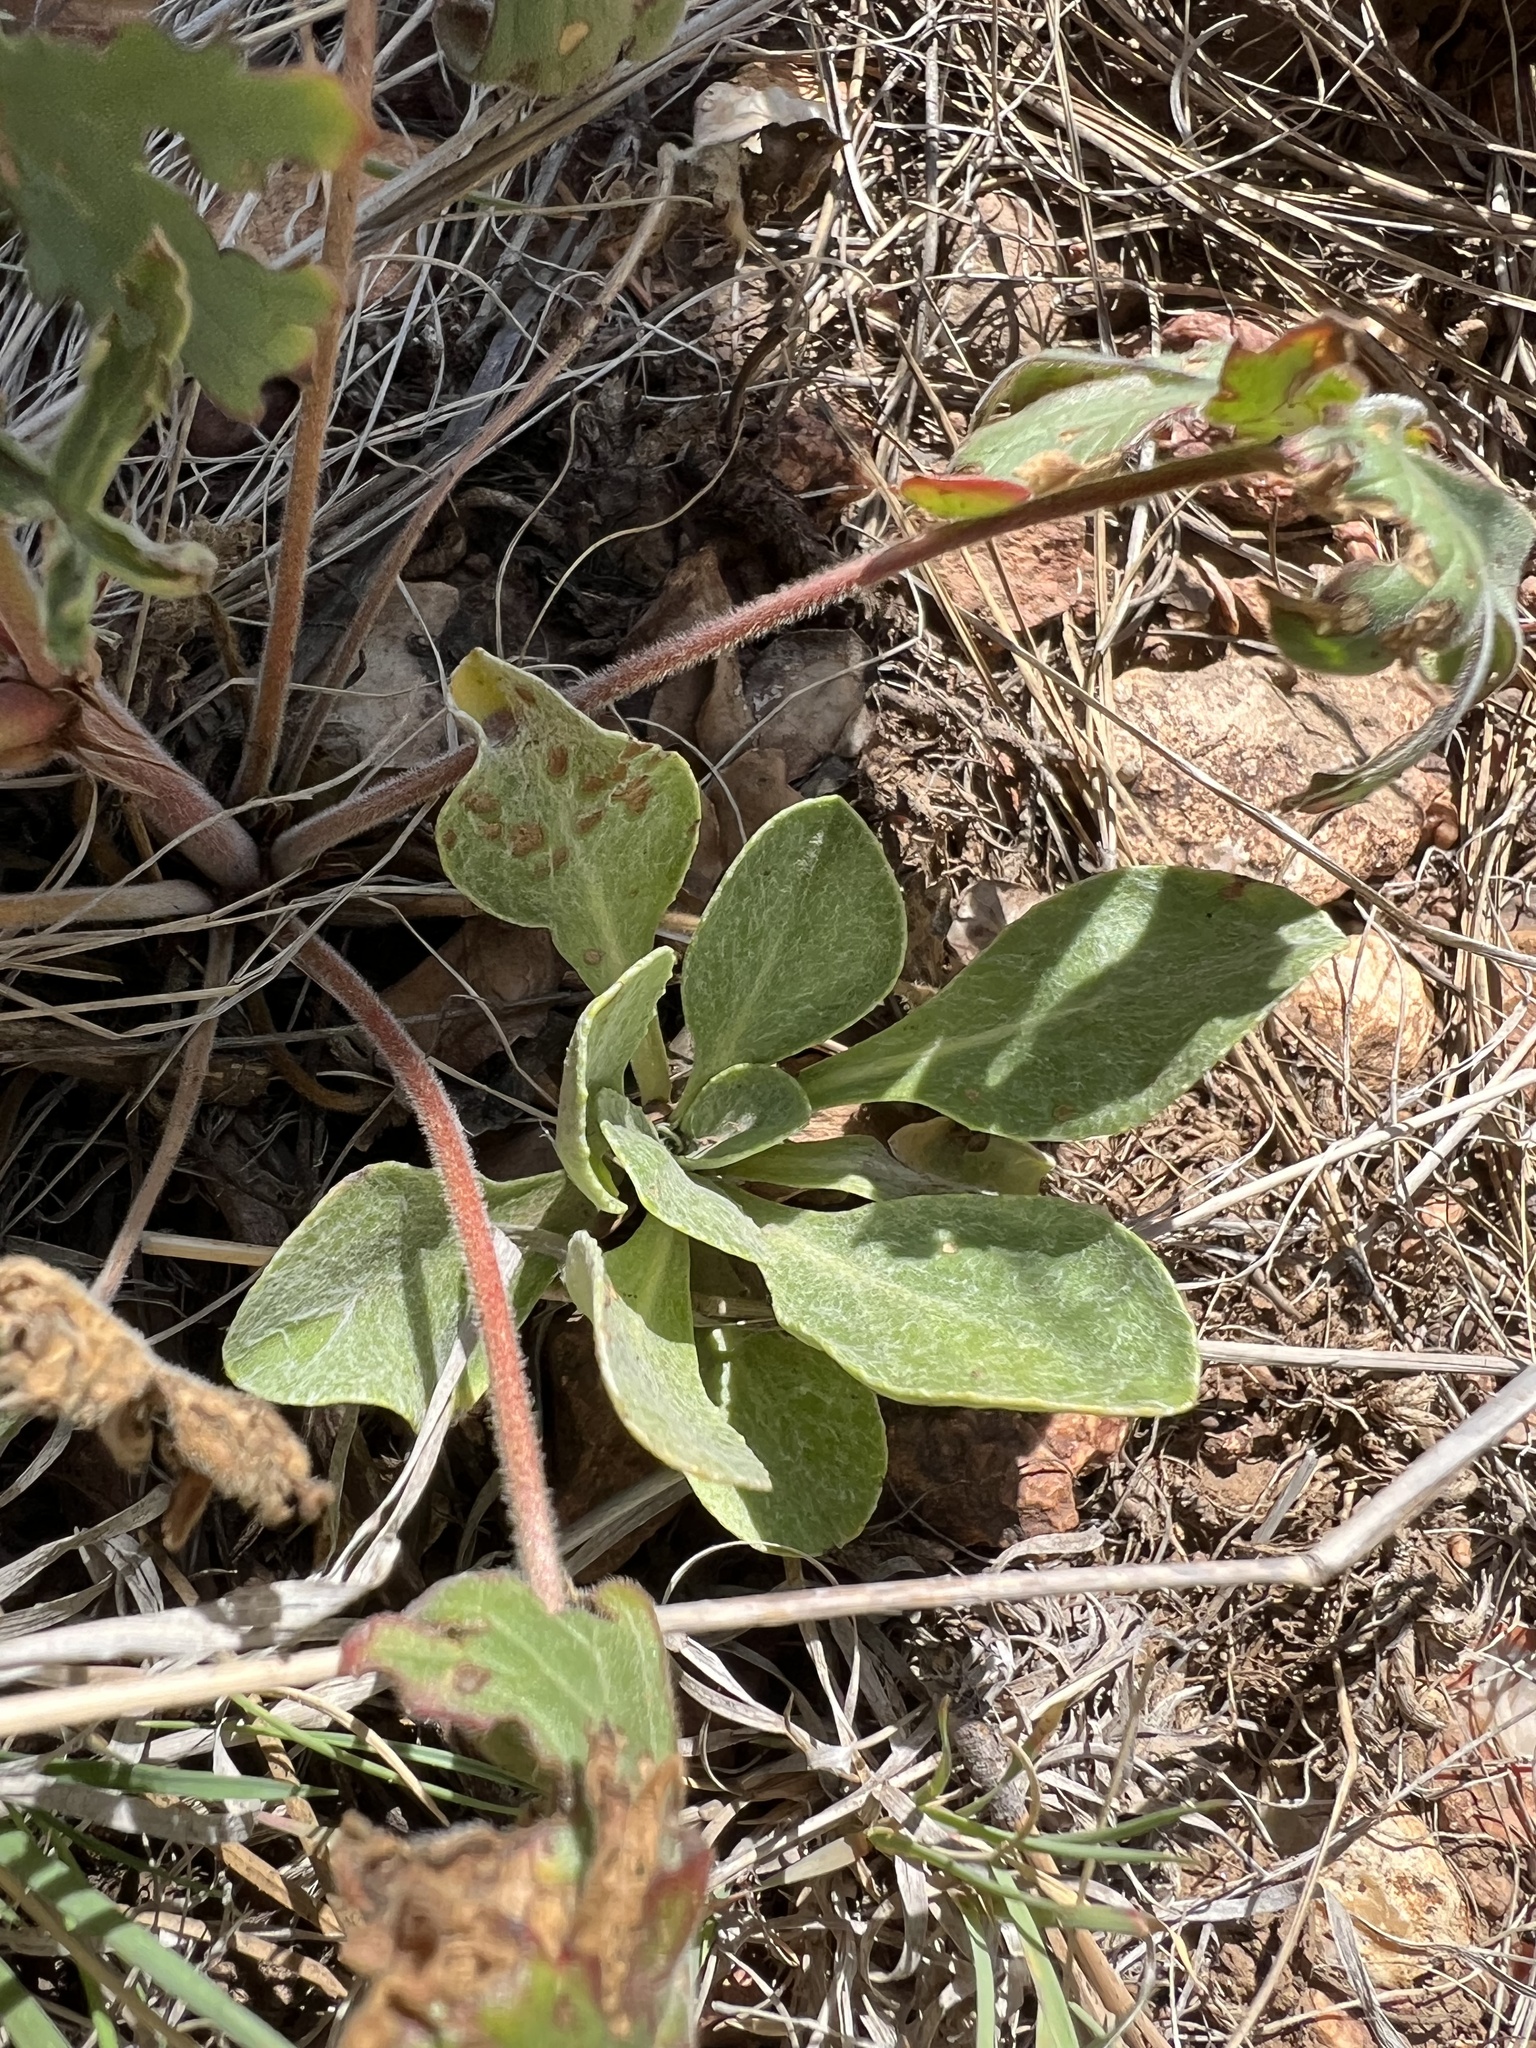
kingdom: Plantae
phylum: Tracheophyta
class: Magnoliopsida
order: Asterales
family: Asteraceae
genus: Packera
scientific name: Packera actinella
